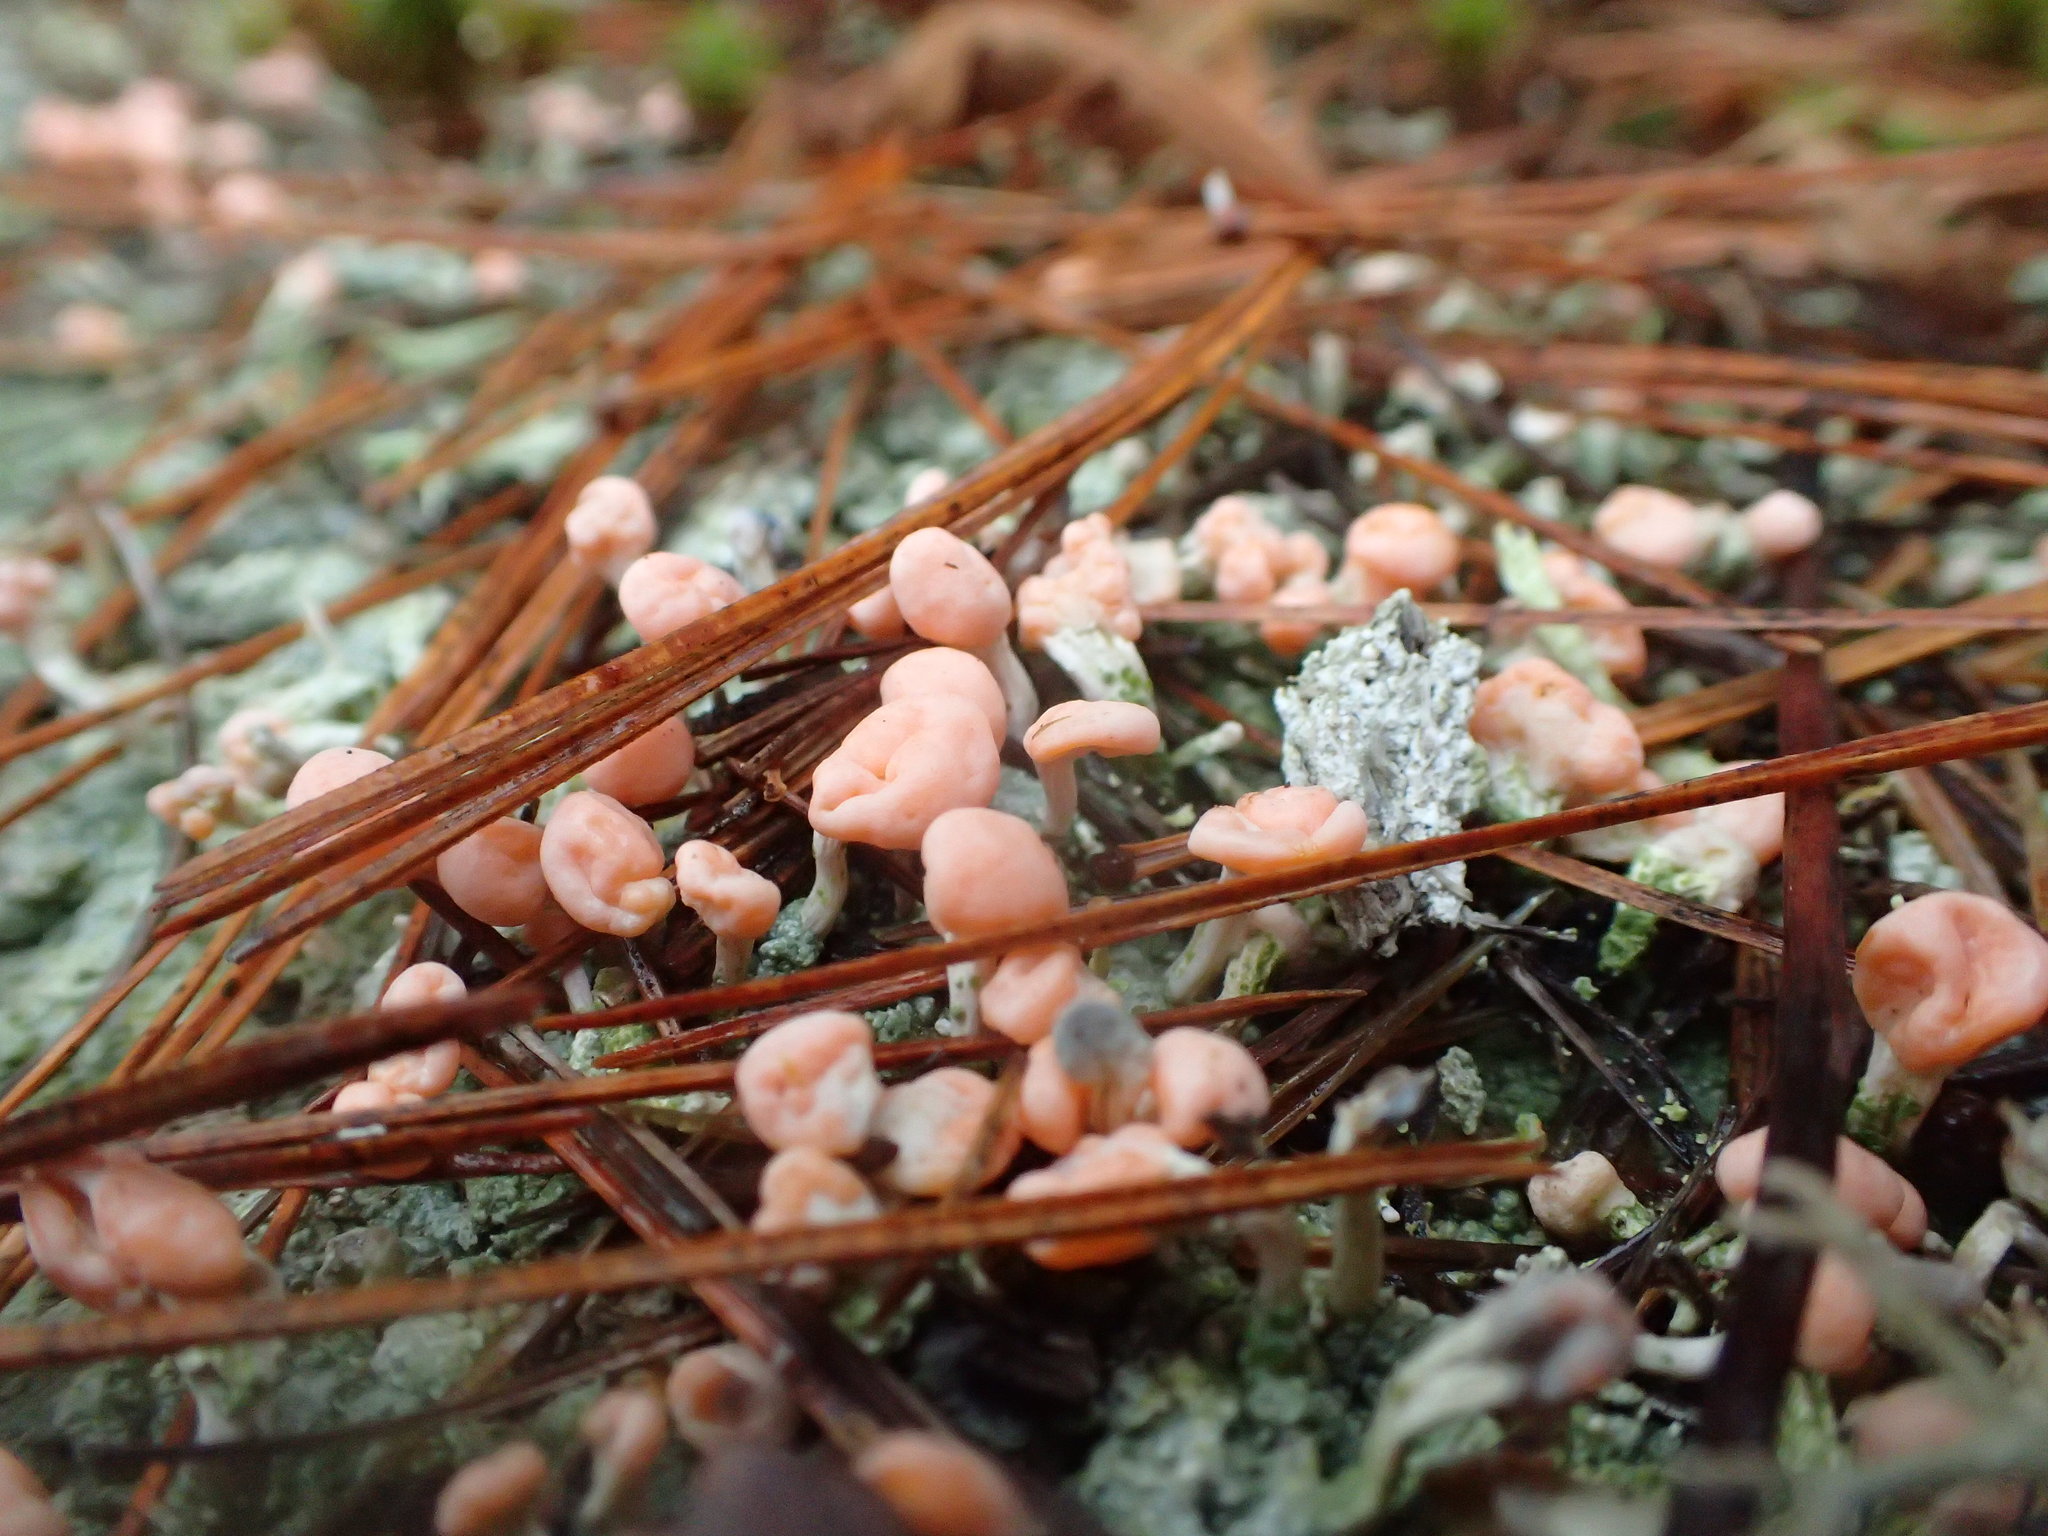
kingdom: Fungi
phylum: Ascomycota
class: Lecanoromycetes
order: Pertusariales
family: Icmadophilaceae
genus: Dibaeis
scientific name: Dibaeis baeomyces
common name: Pink earth lichen
